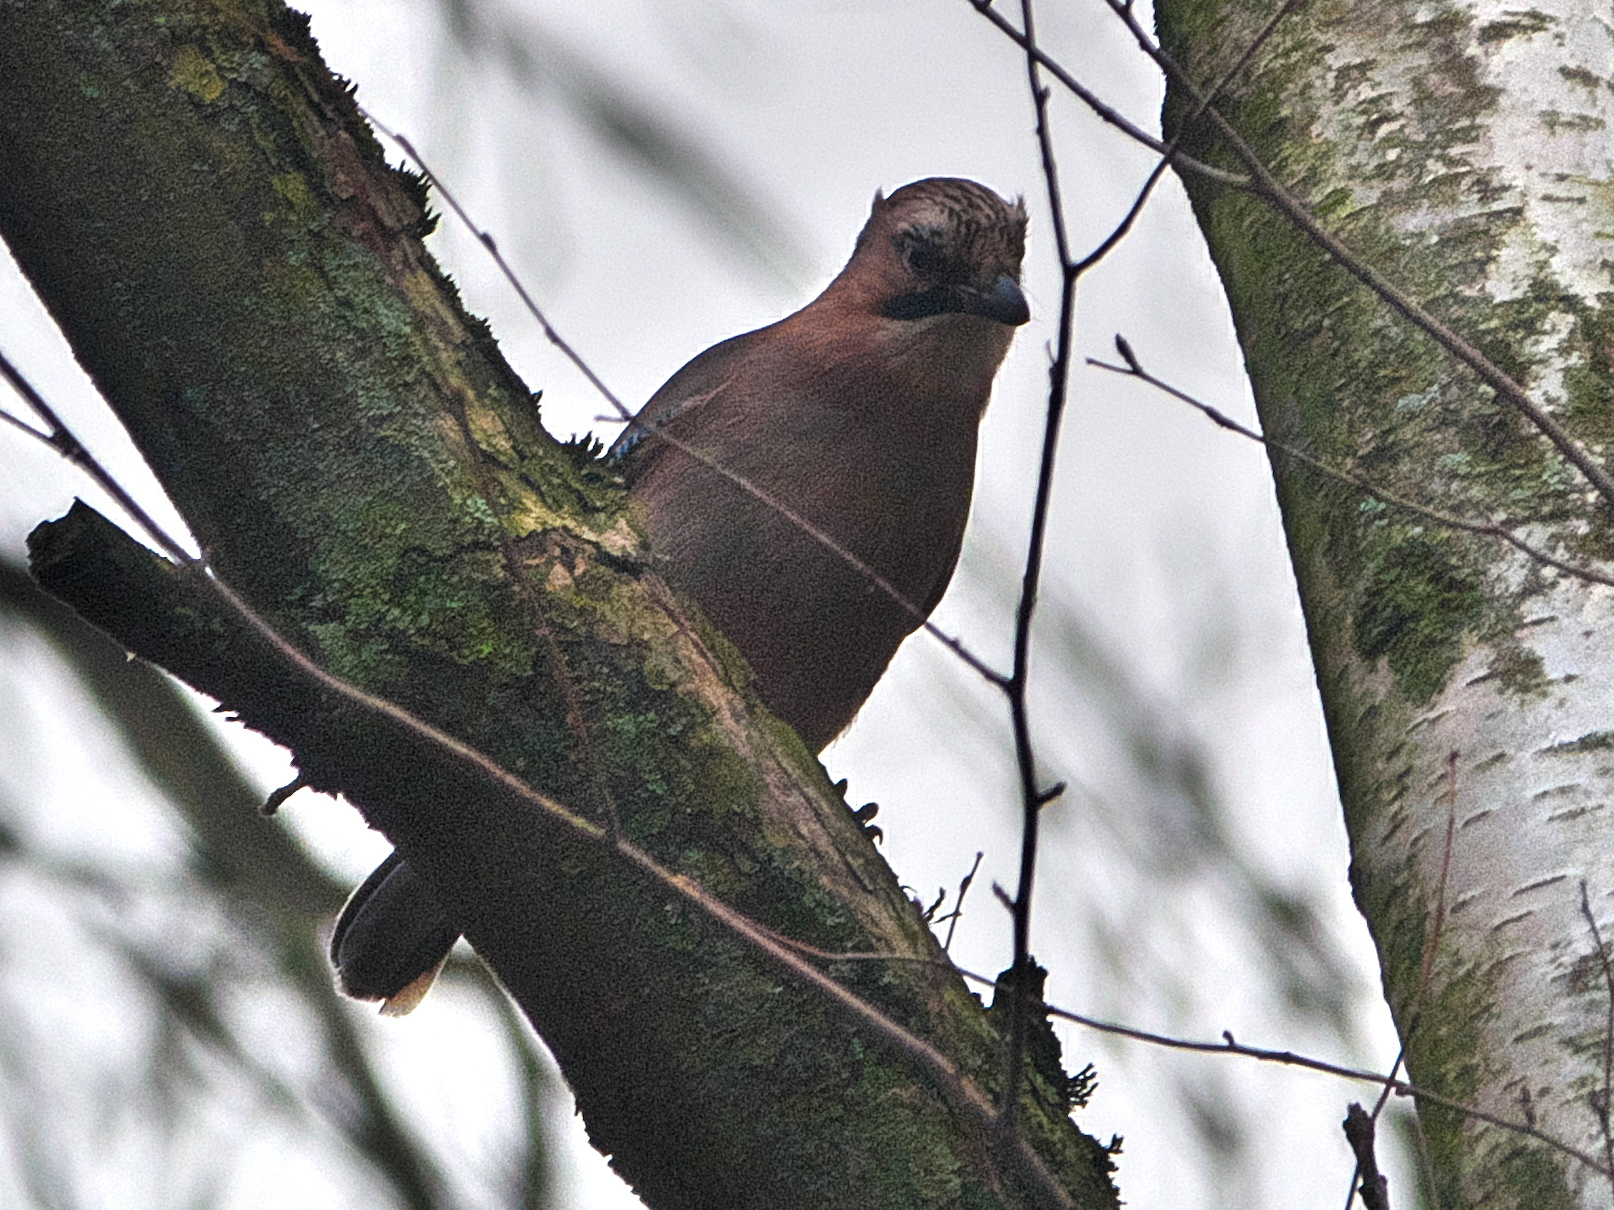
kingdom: Animalia
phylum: Chordata
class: Aves
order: Passeriformes
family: Corvidae
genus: Garrulus
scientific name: Garrulus glandarius
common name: Eurasian jay
